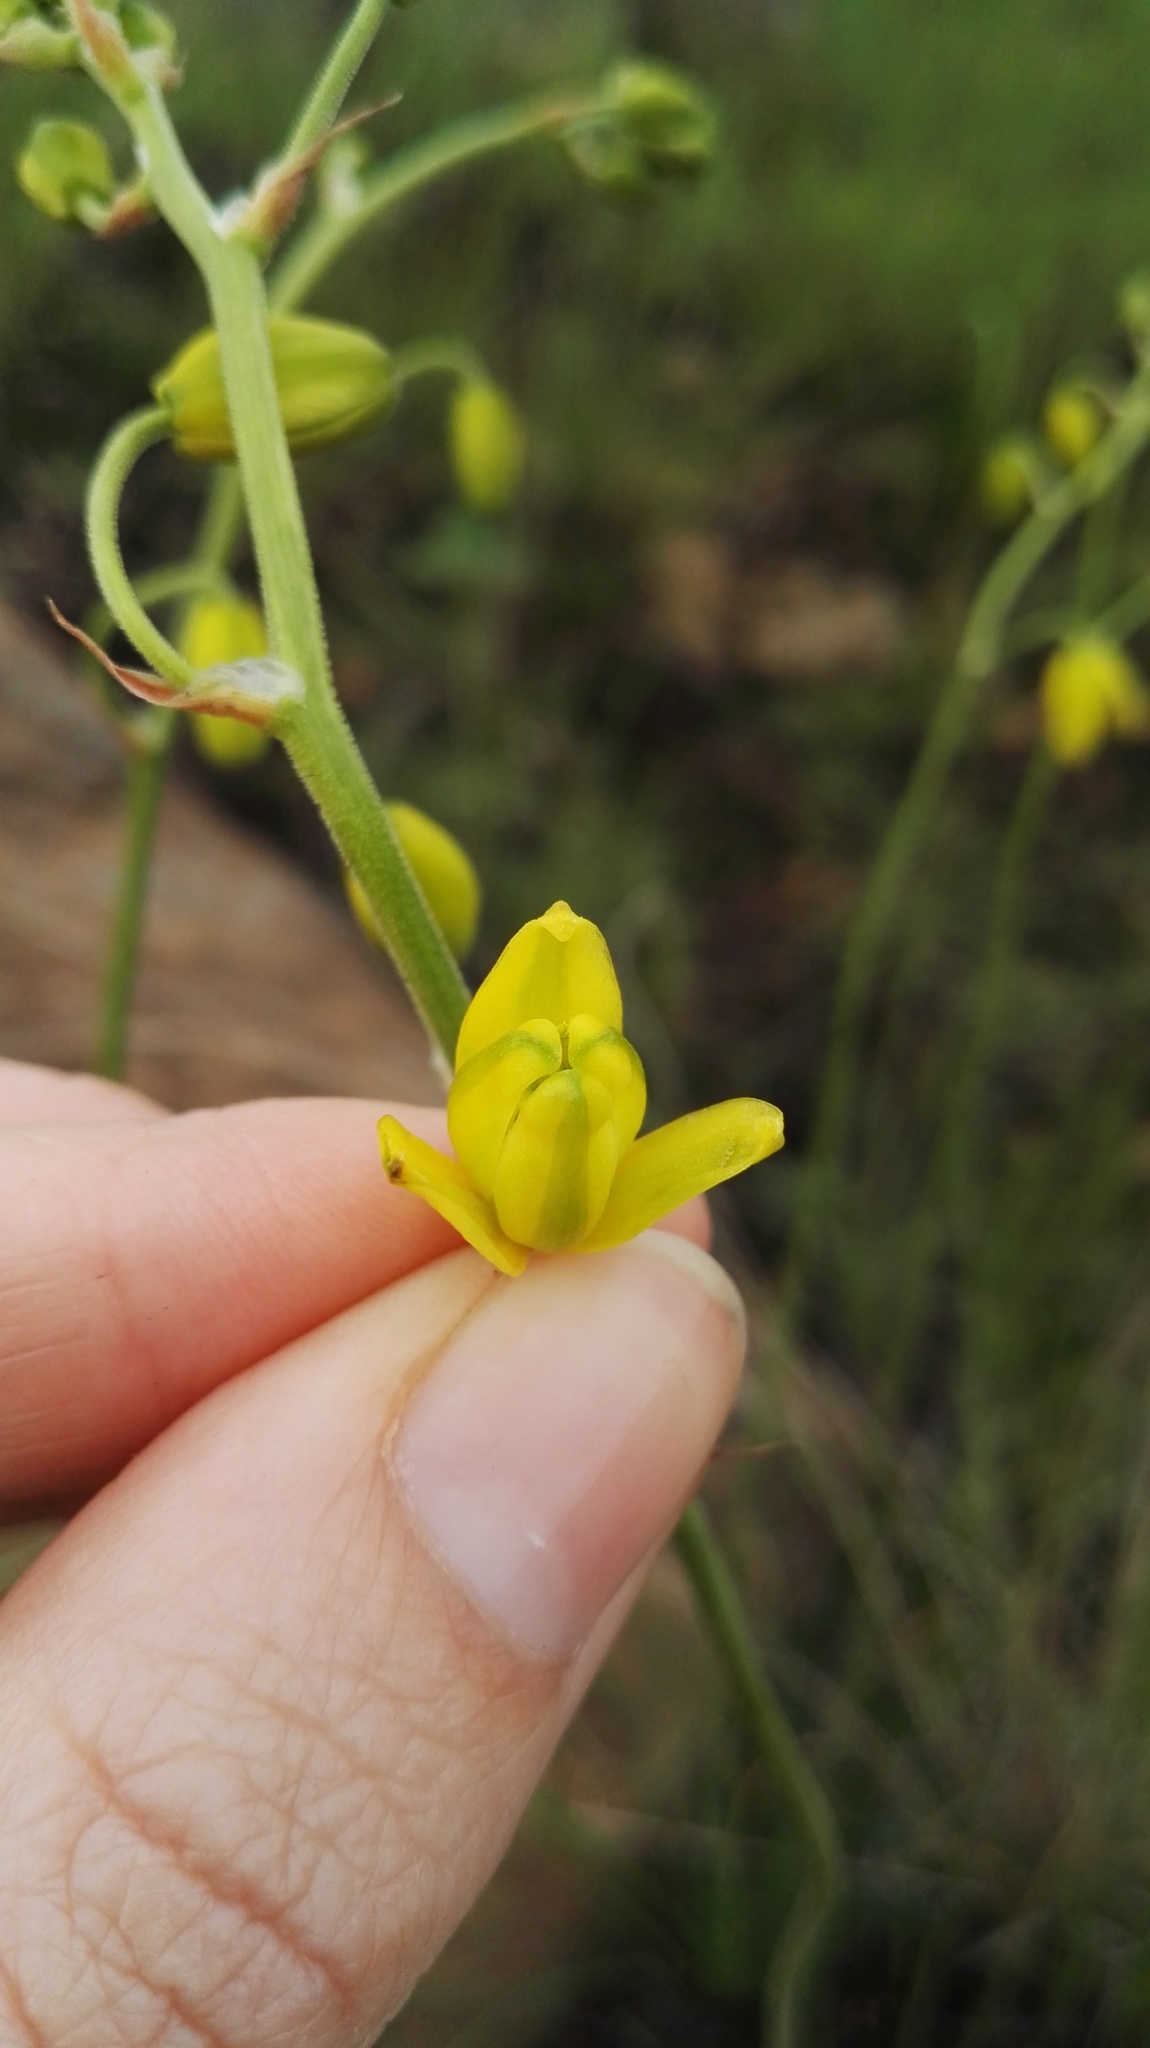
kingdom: Plantae
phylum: Tracheophyta
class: Liliopsida
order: Asparagales
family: Asparagaceae
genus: Albuca
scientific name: Albuca shawii
